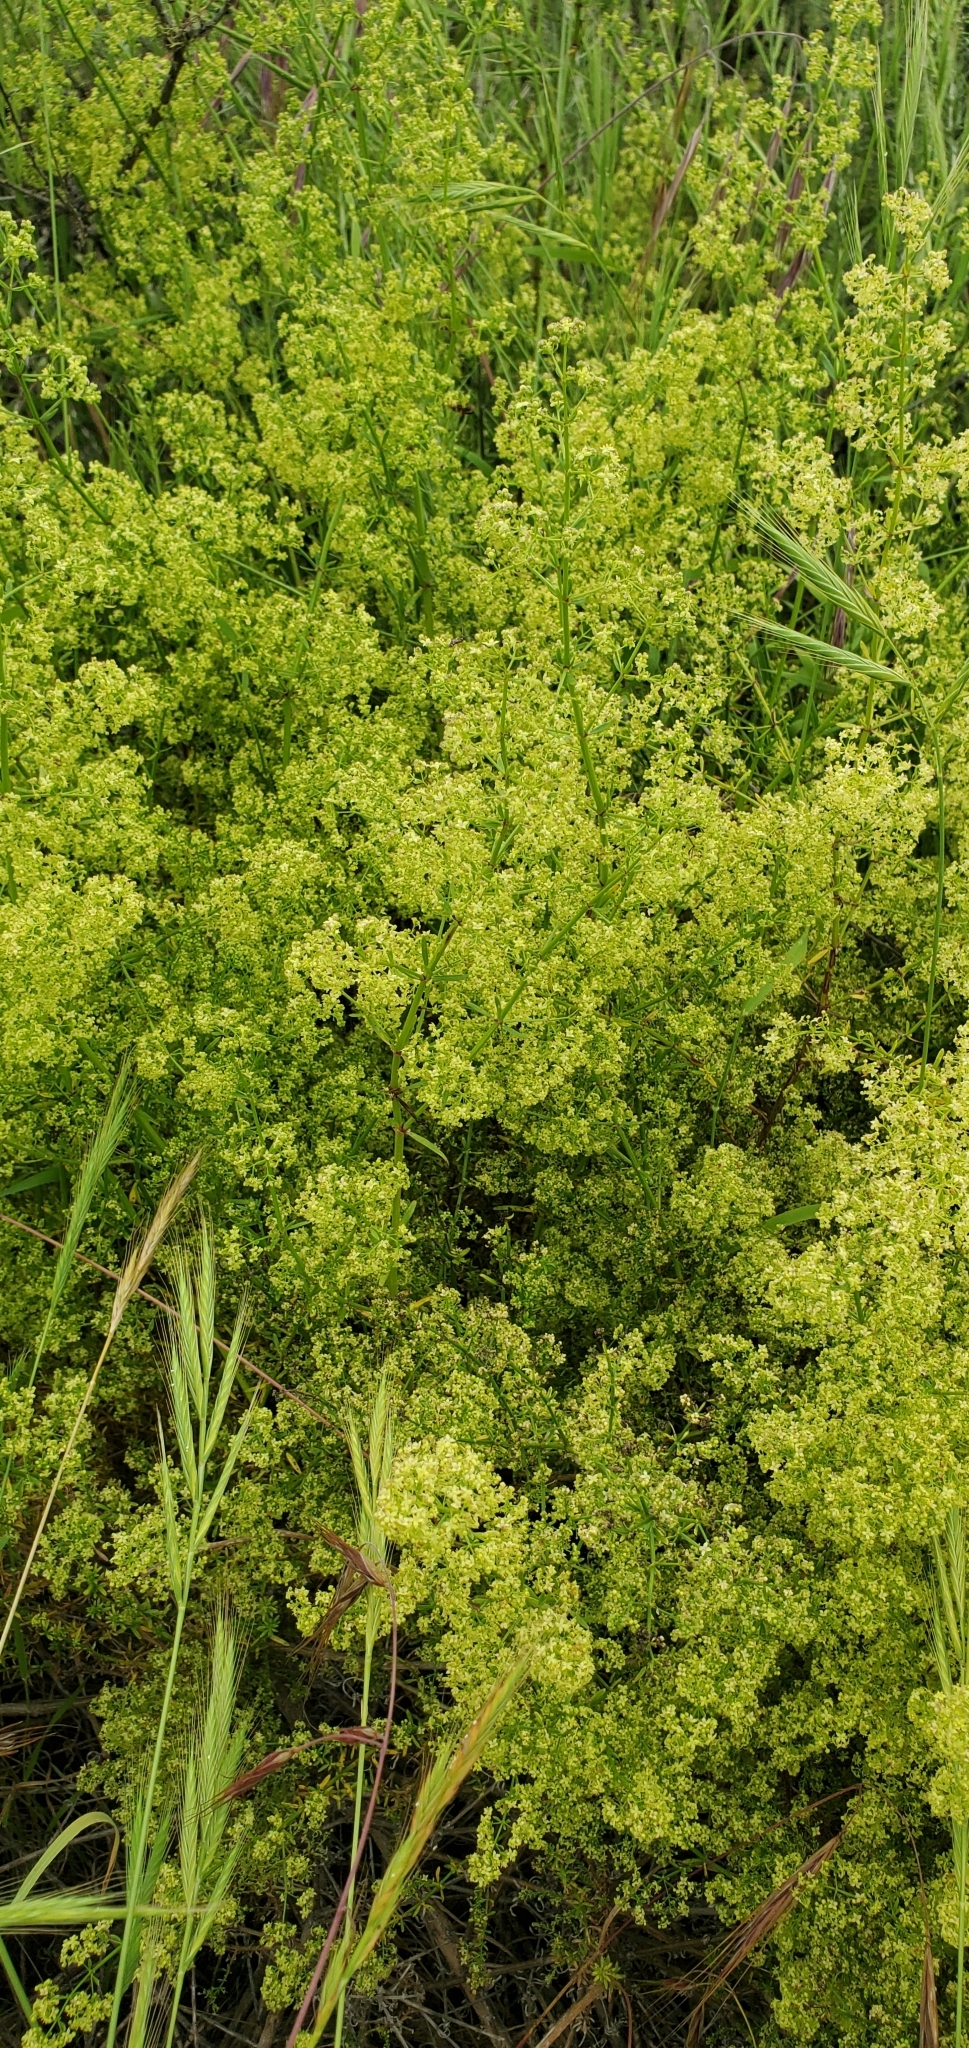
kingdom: Plantae
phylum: Tracheophyta
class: Magnoliopsida
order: Gentianales
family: Rubiaceae
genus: Galium
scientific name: Galium angustifolium
